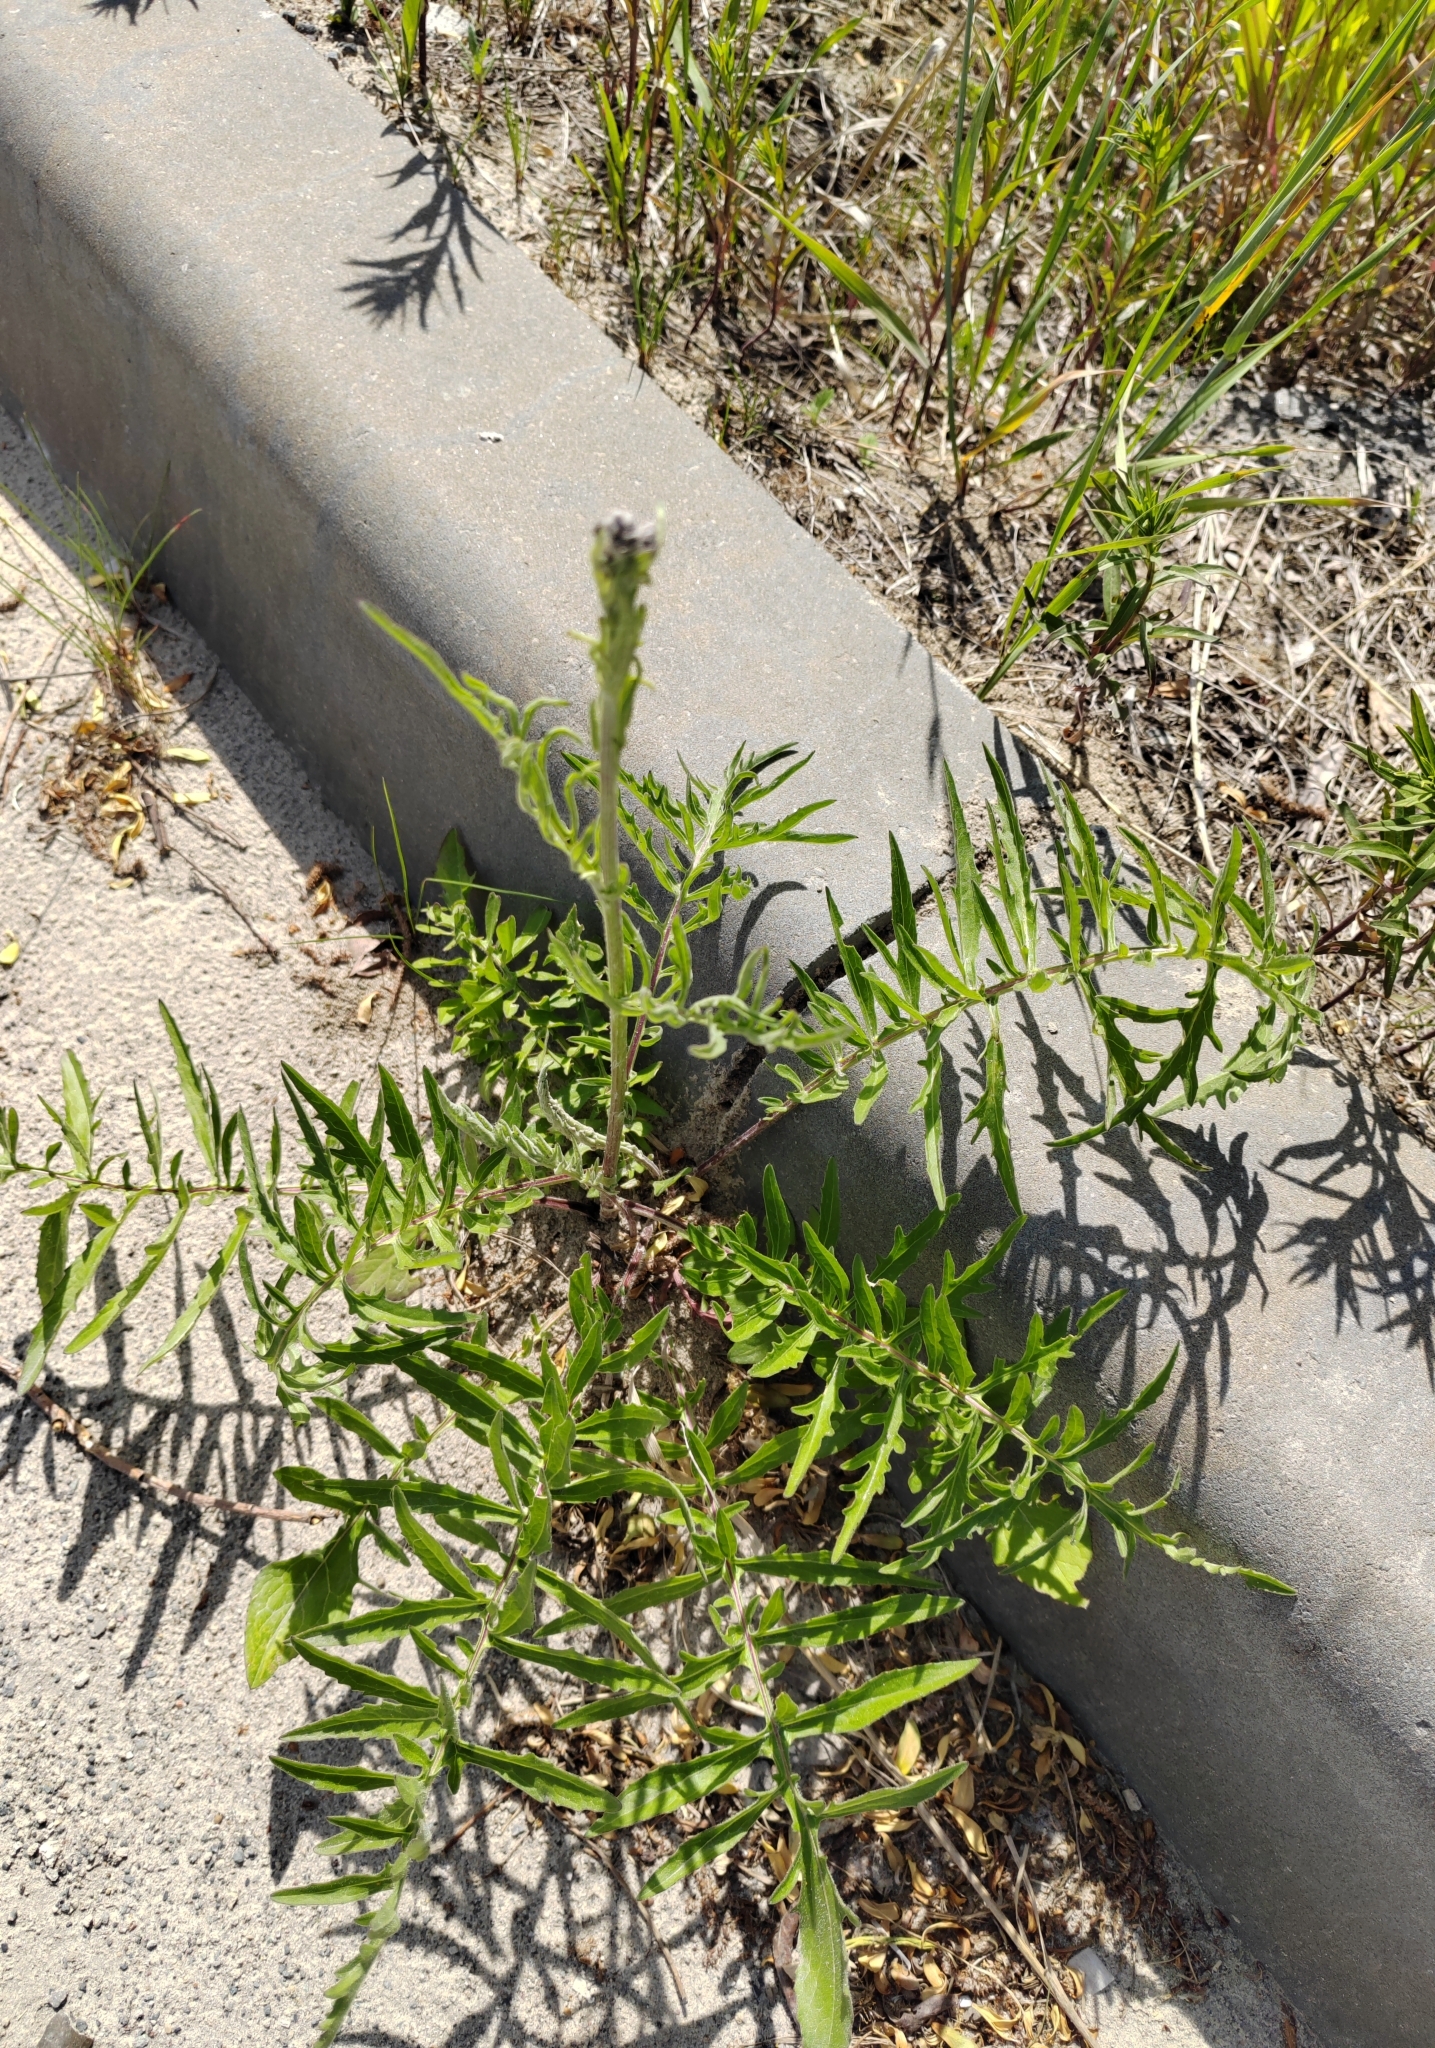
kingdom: Plantae
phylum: Tracheophyta
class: Magnoliopsida
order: Asterales
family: Asteraceae
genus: Centaurea
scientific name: Centaurea scabiosa
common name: Greater knapweed
